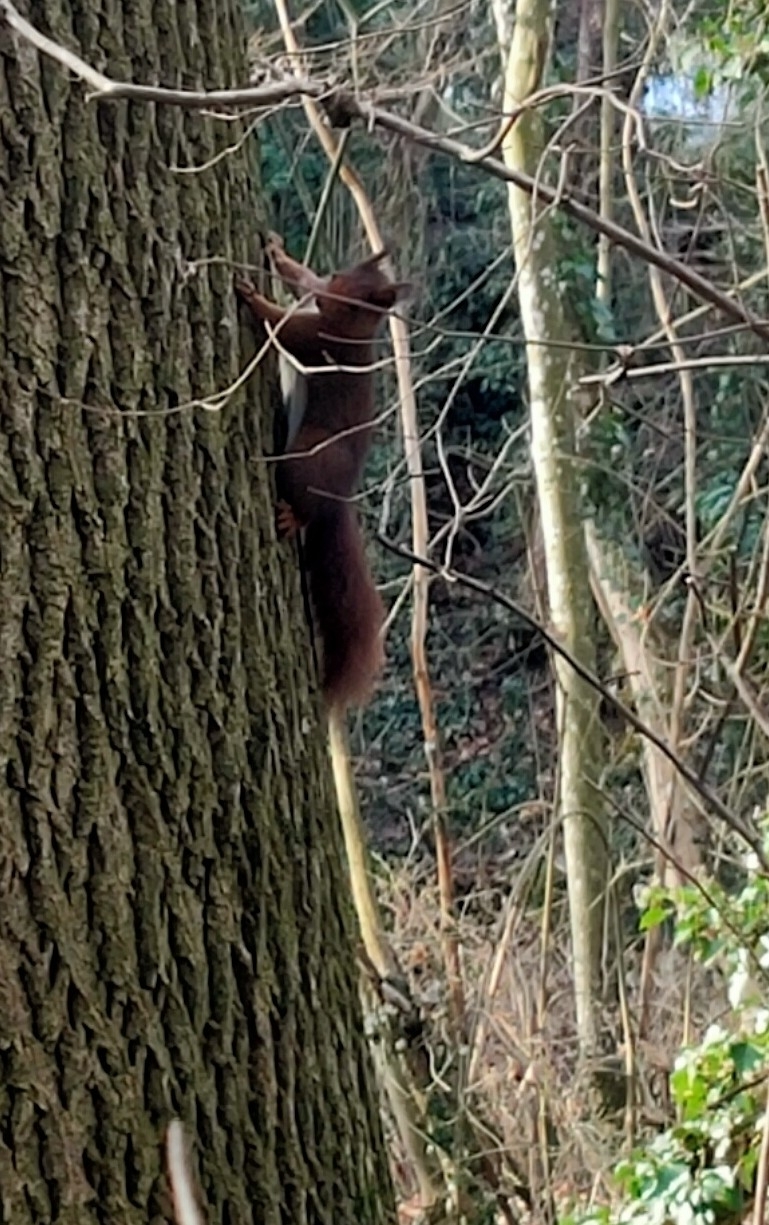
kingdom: Animalia
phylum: Chordata
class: Mammalia
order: Rodentia
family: Sciuridae
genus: Sciurus
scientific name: Sciurus vulgaris
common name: Eurasian red squirrel
